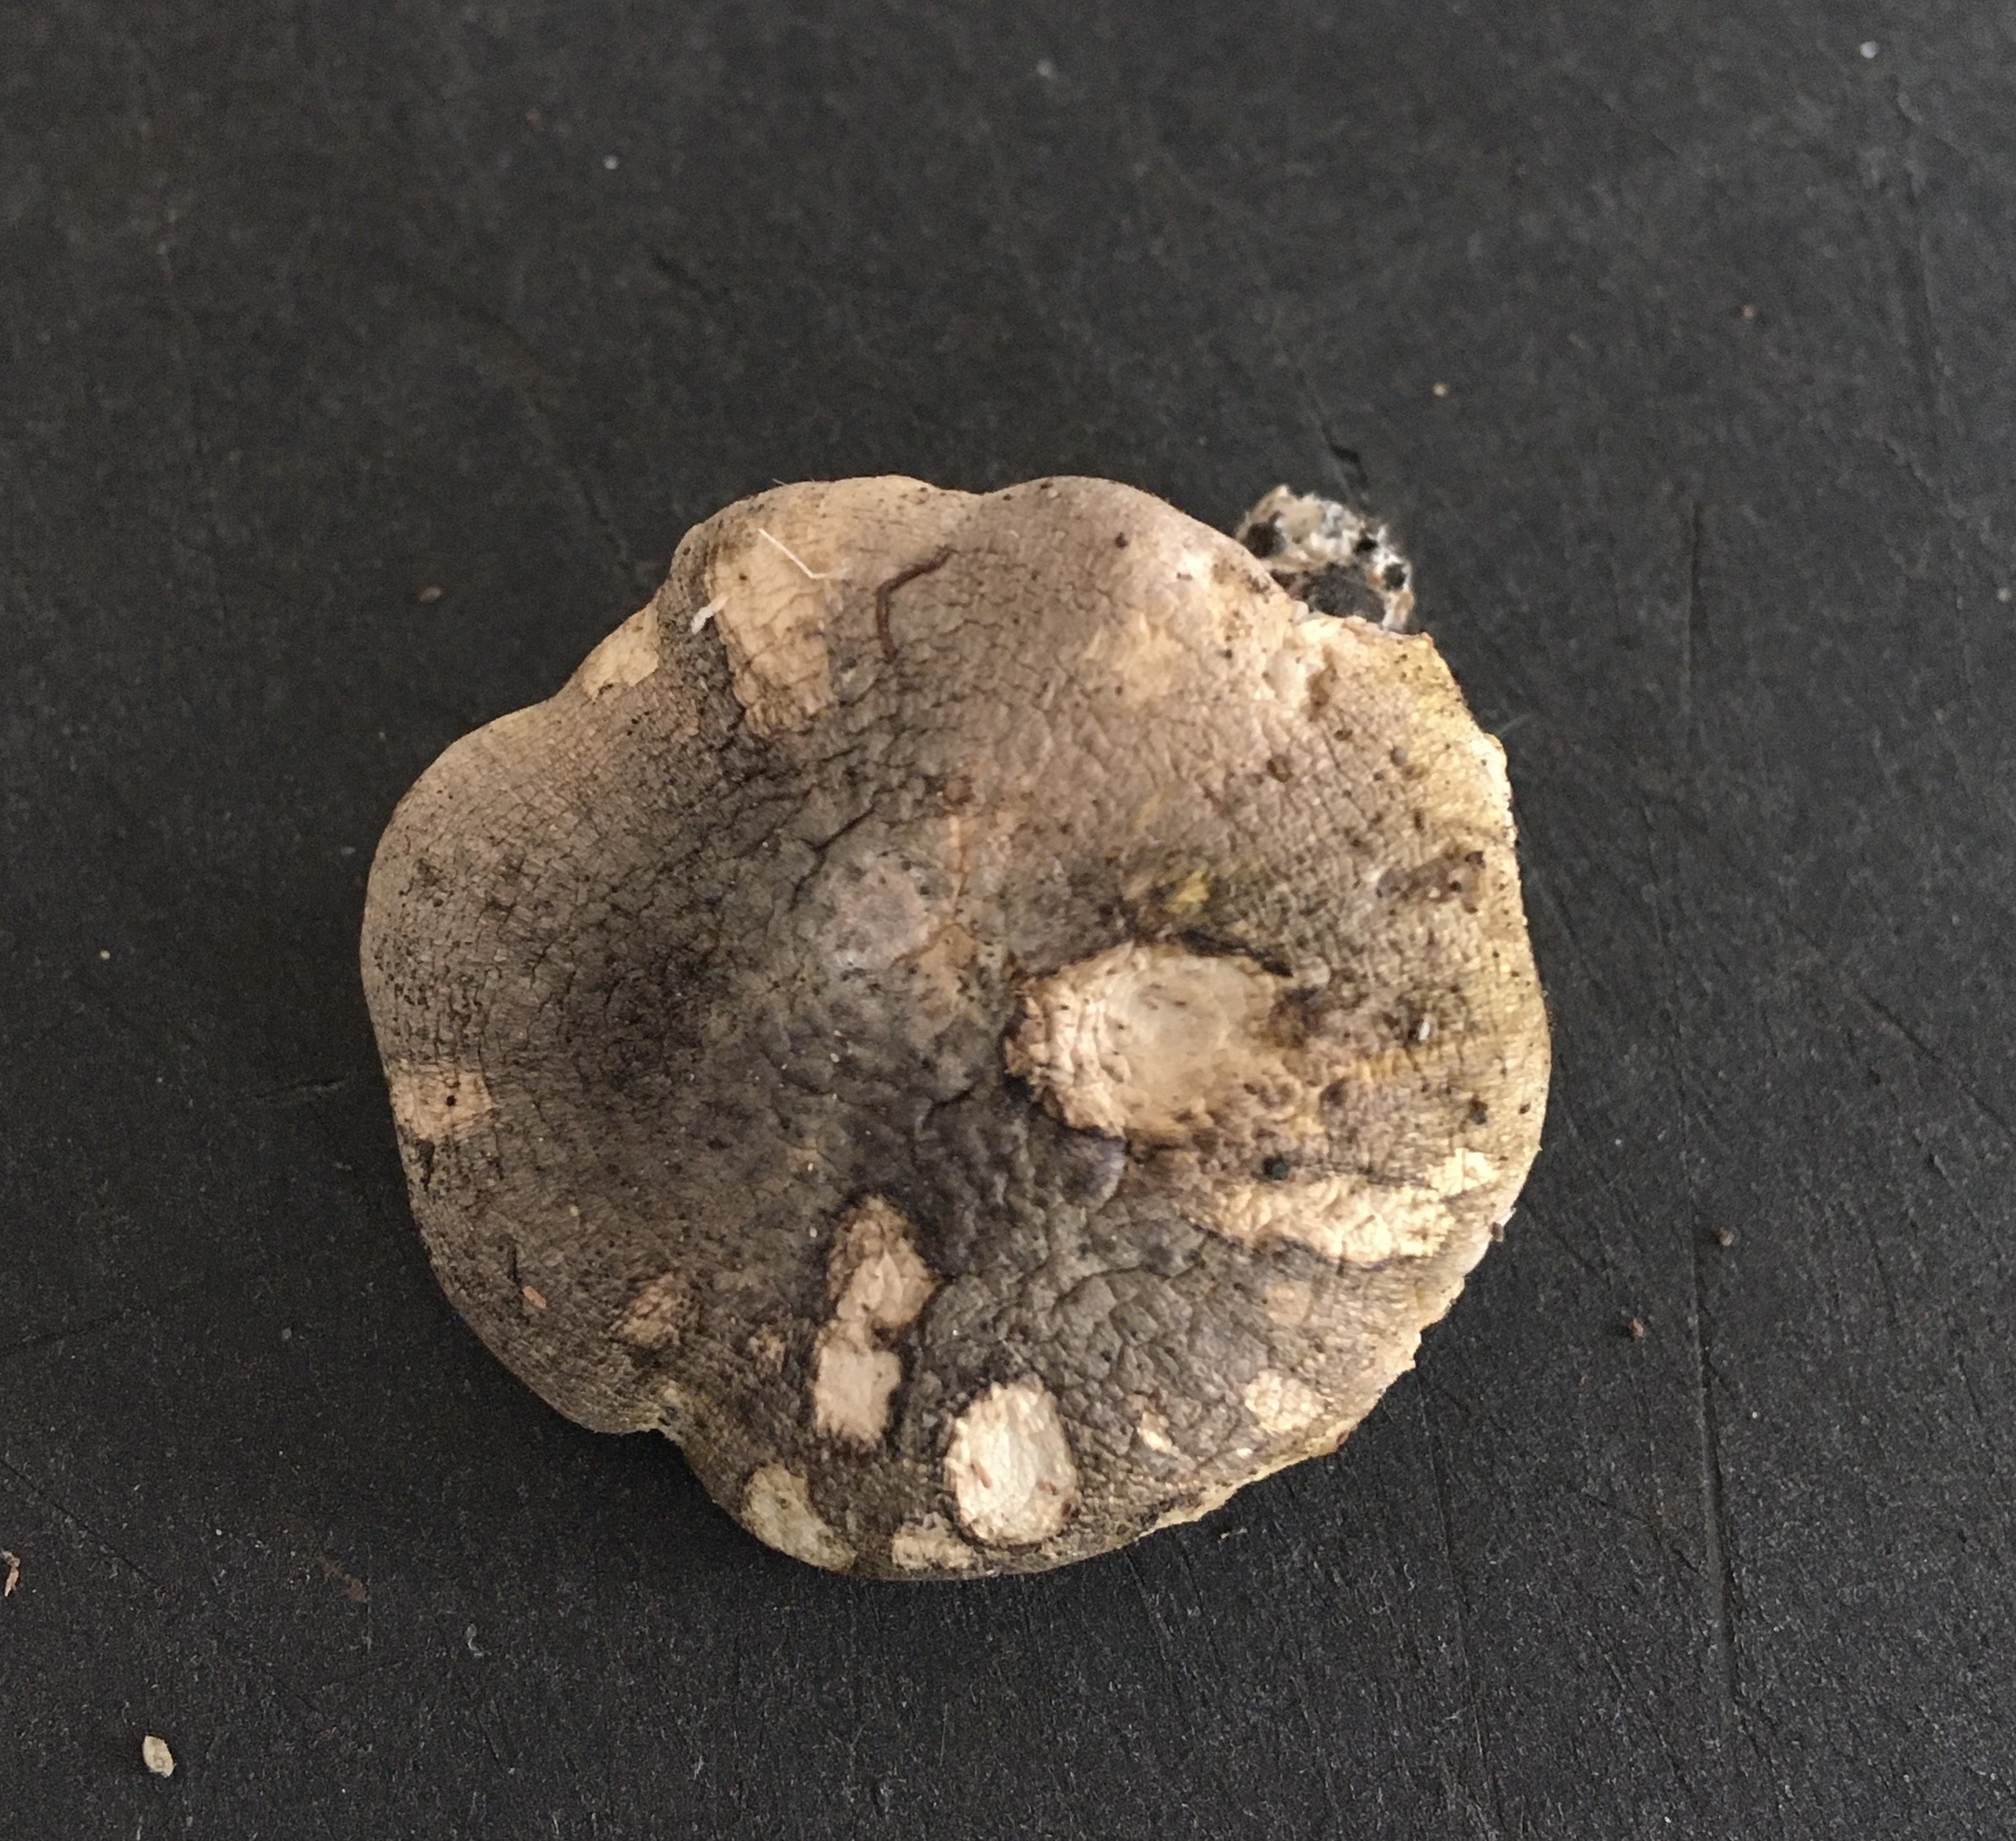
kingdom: Fungi
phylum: Basidiomycota
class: Agaricomycetes
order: Agaricales
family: Tricholomataceae
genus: Tricholoma
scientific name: Tricholoma subsejunctum
